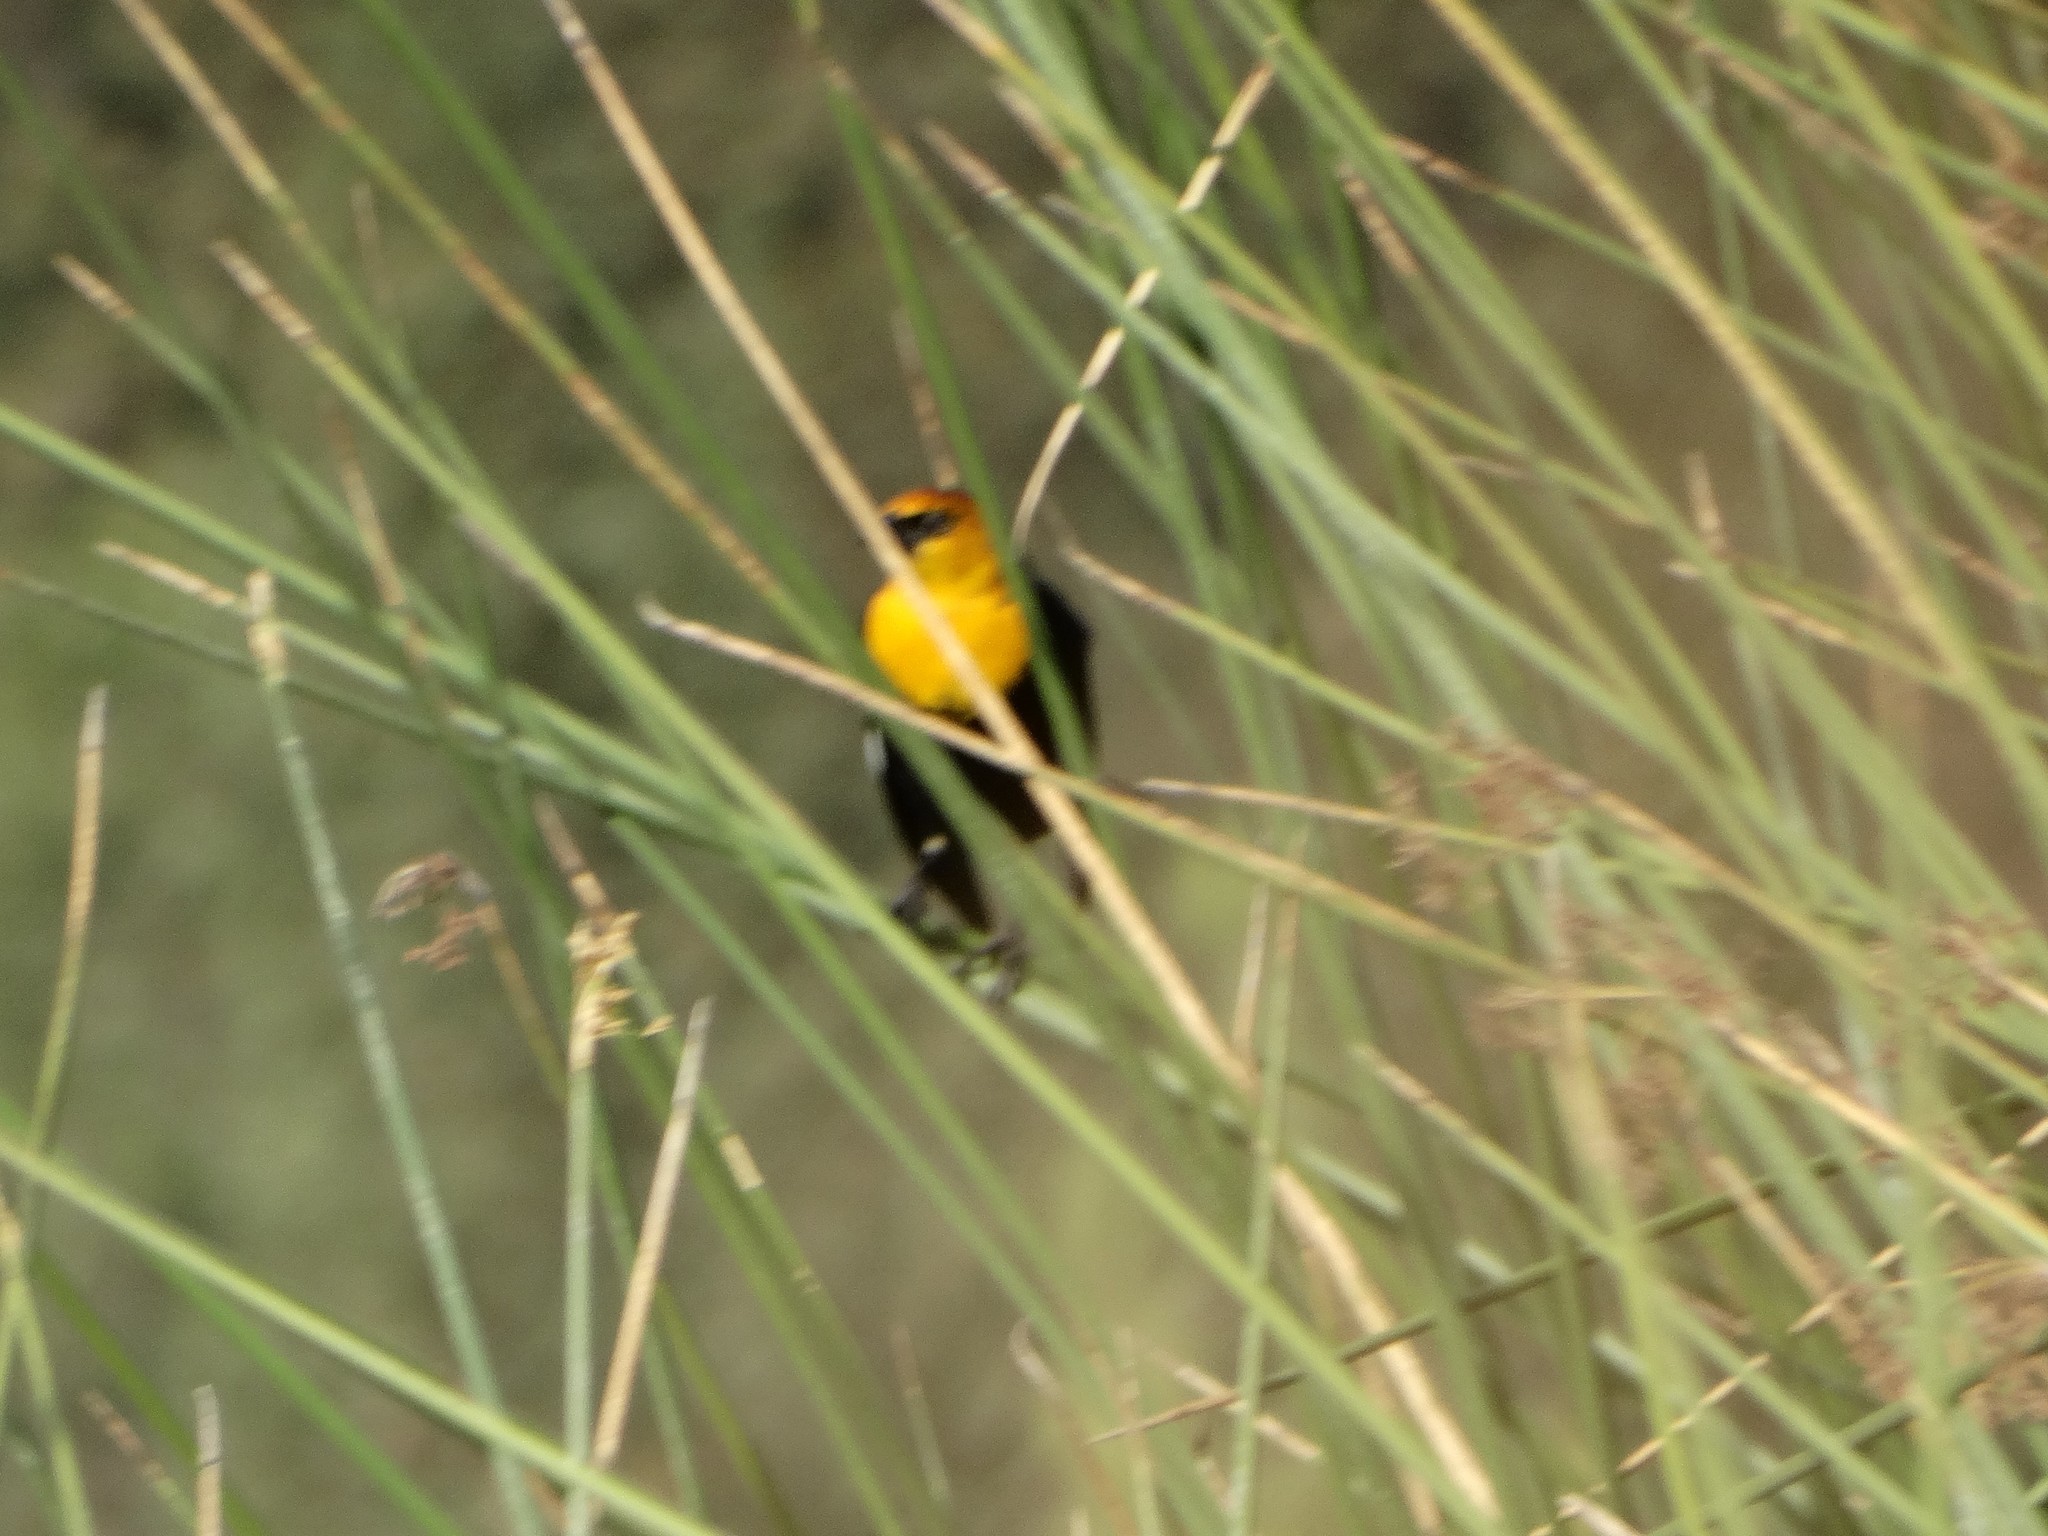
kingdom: Animalia
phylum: Chordata
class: Aves
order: Passeriformes
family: Icteridae
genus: Xanthocephalus
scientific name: Xanthocephalus xanthocephalus
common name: Yellow-headed blackbird
